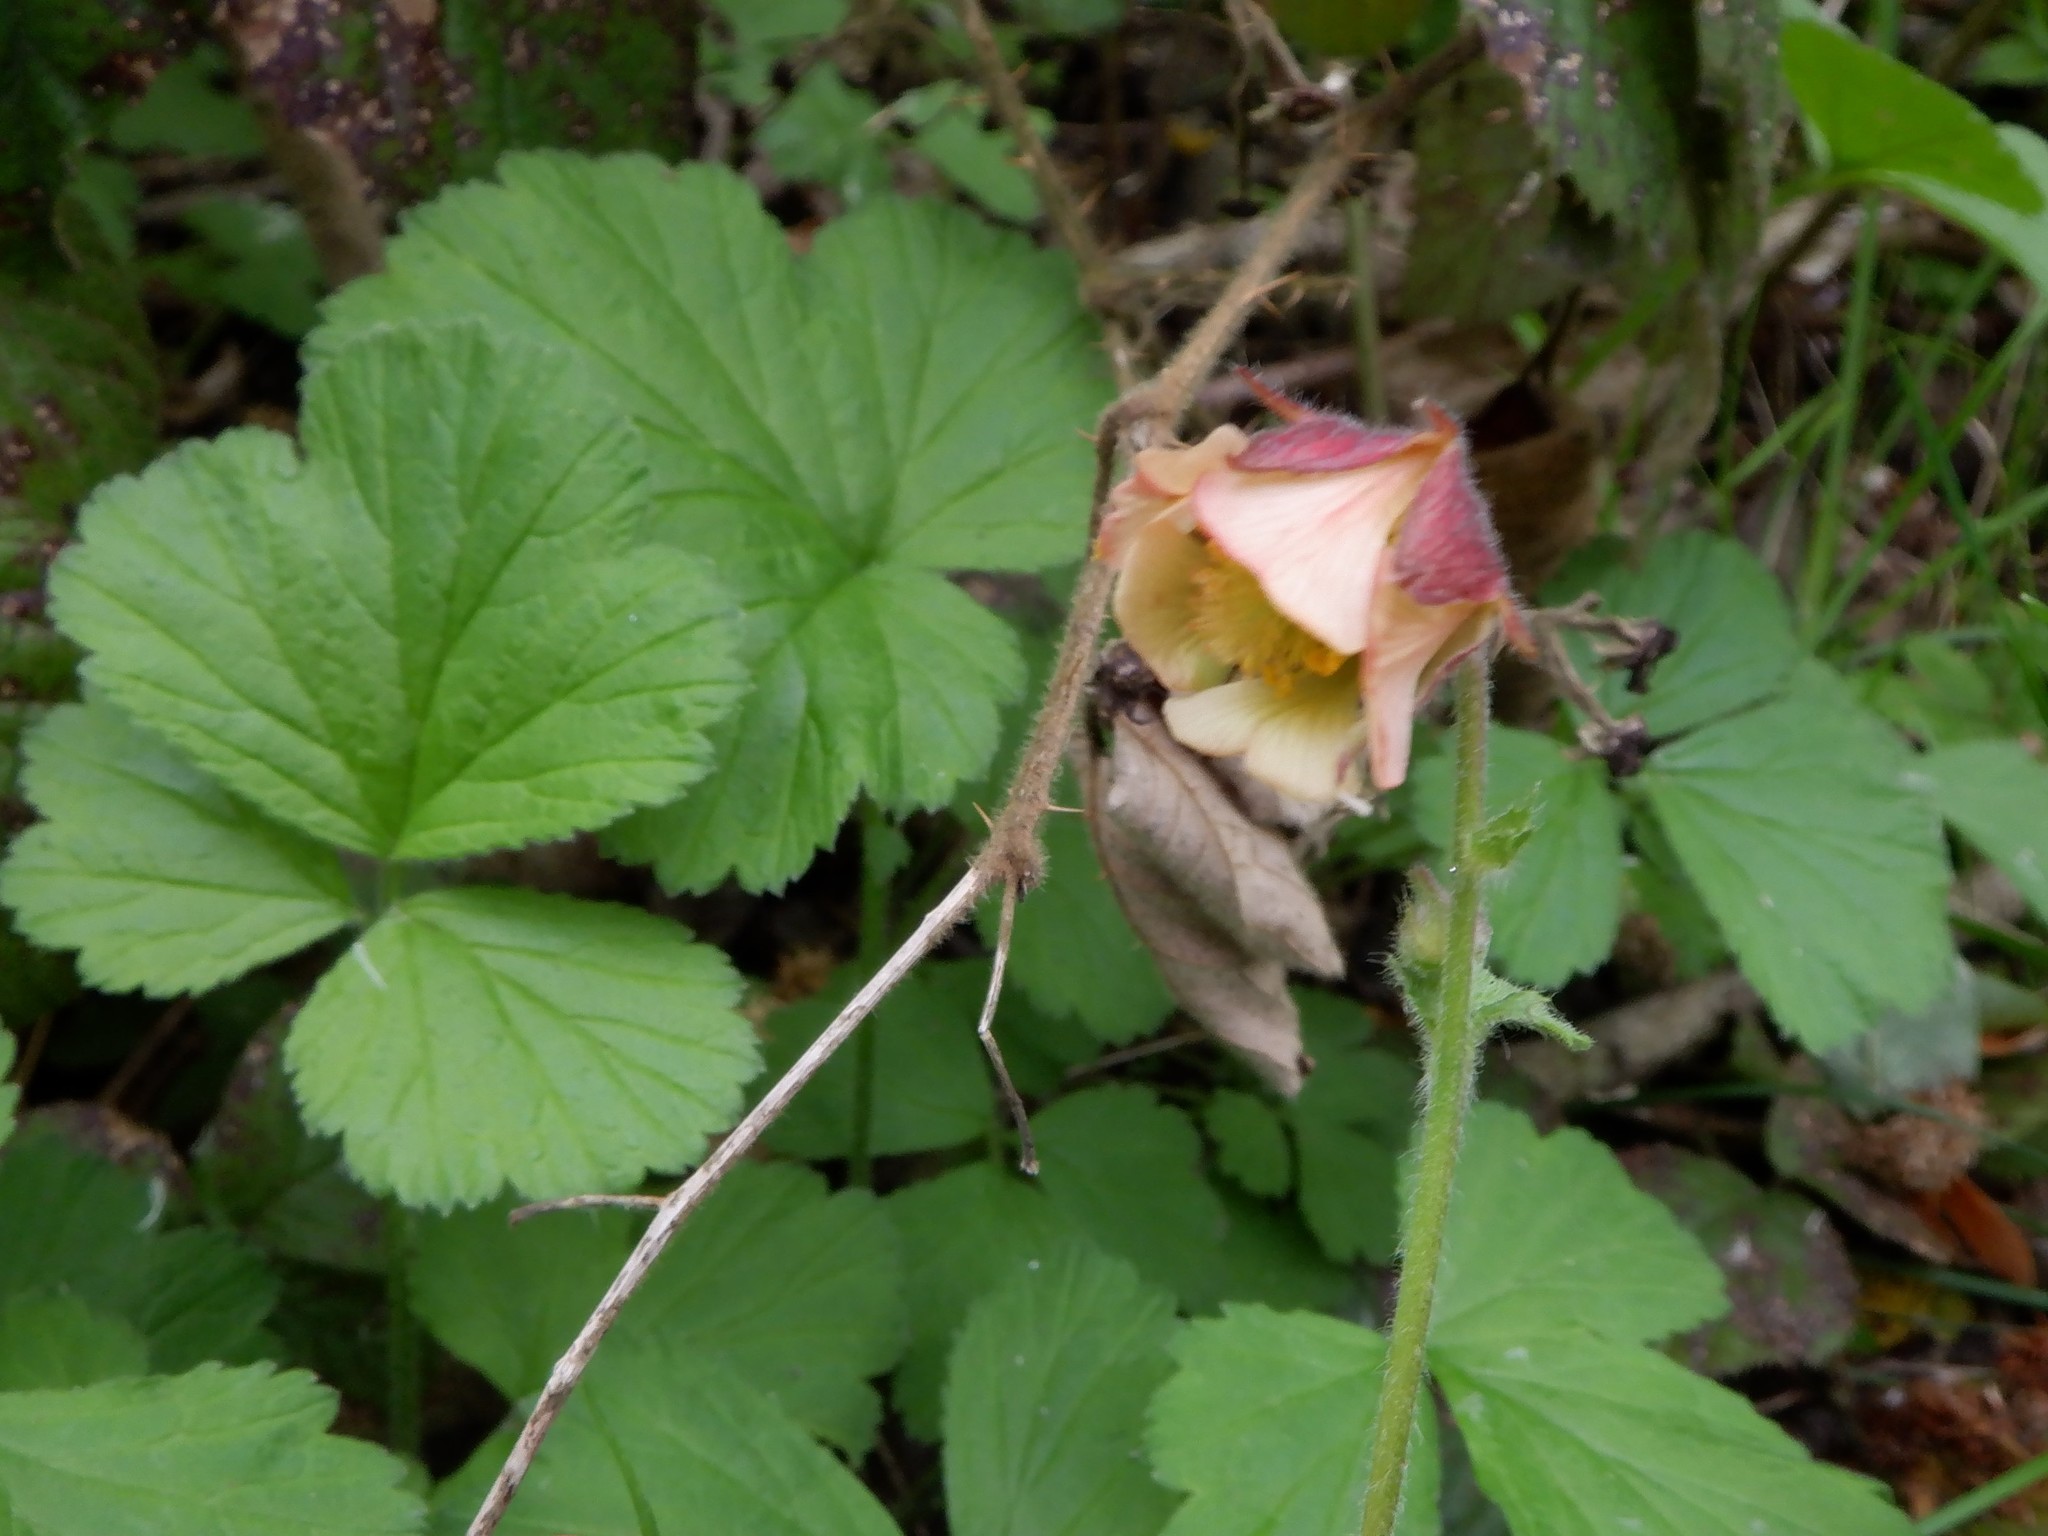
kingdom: Plantae
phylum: Tracheophyta
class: Magnoliopsida
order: Rosales
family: Rosaceae
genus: Geum
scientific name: Geum rivale
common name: Water avens
